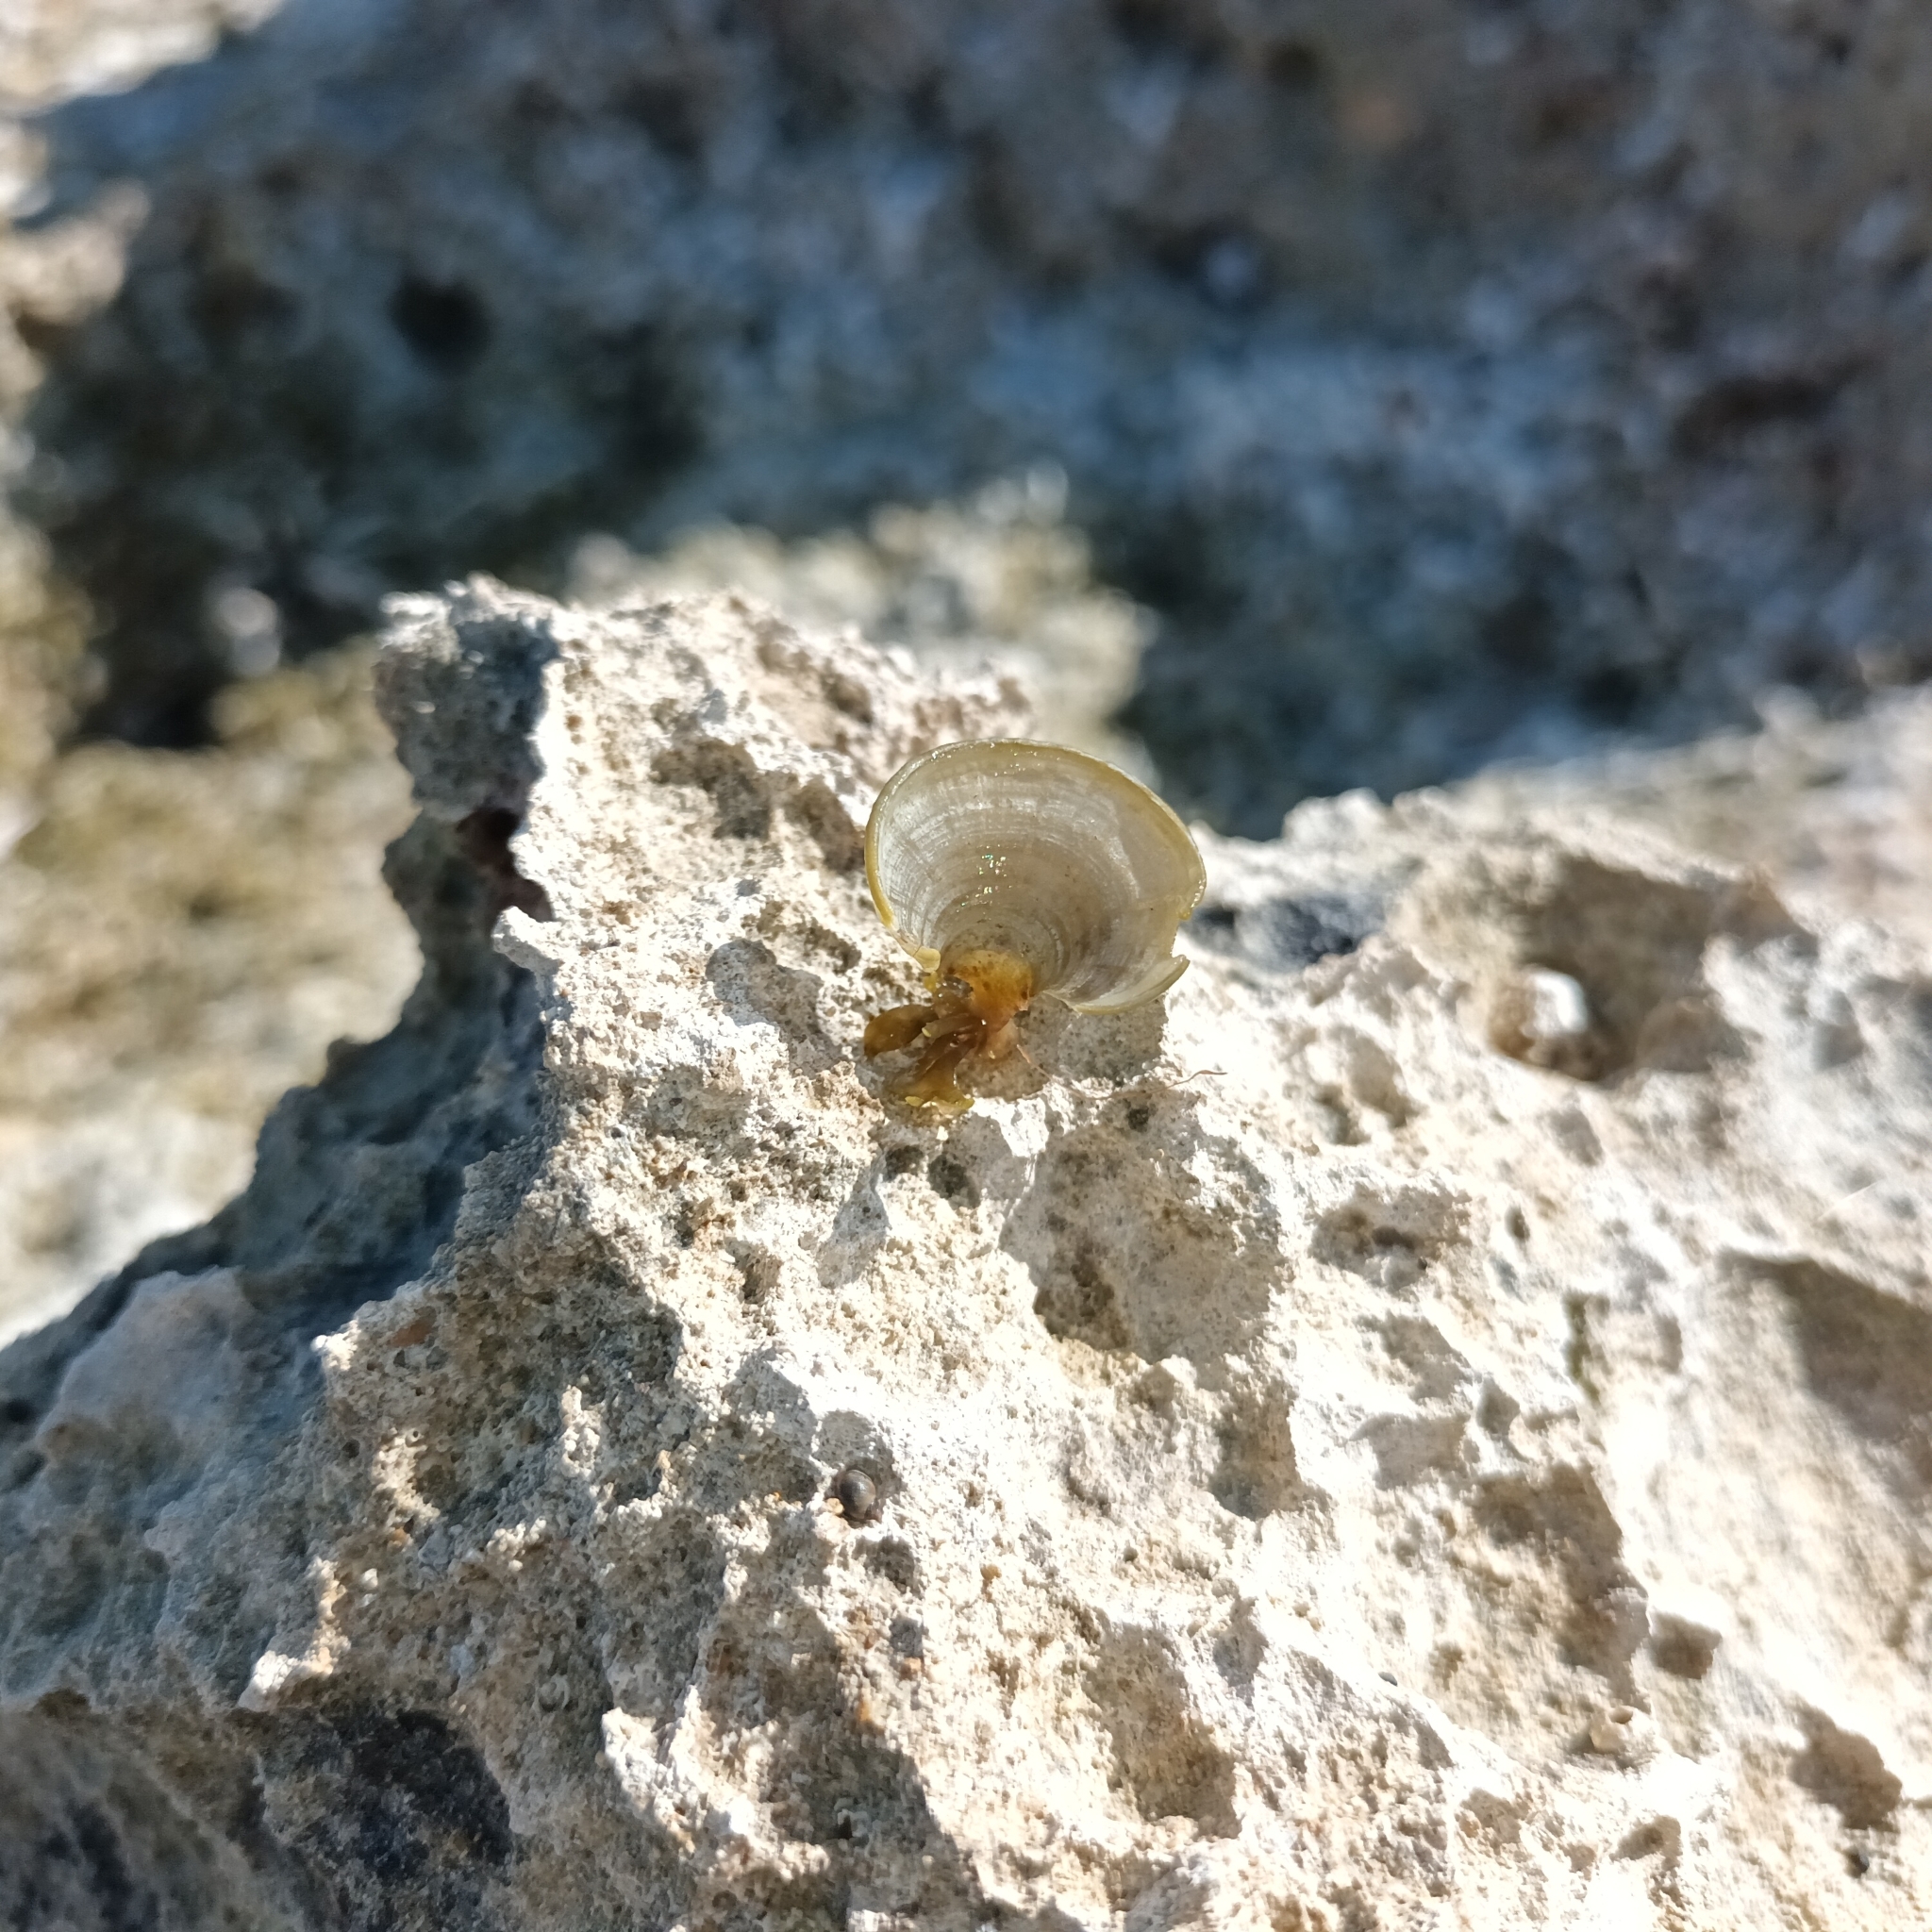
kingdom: Chromista
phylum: Ochrophyta
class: Phaeophyceae
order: Dictyotales
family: Dictyotaceae
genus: Padina
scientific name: Padina
